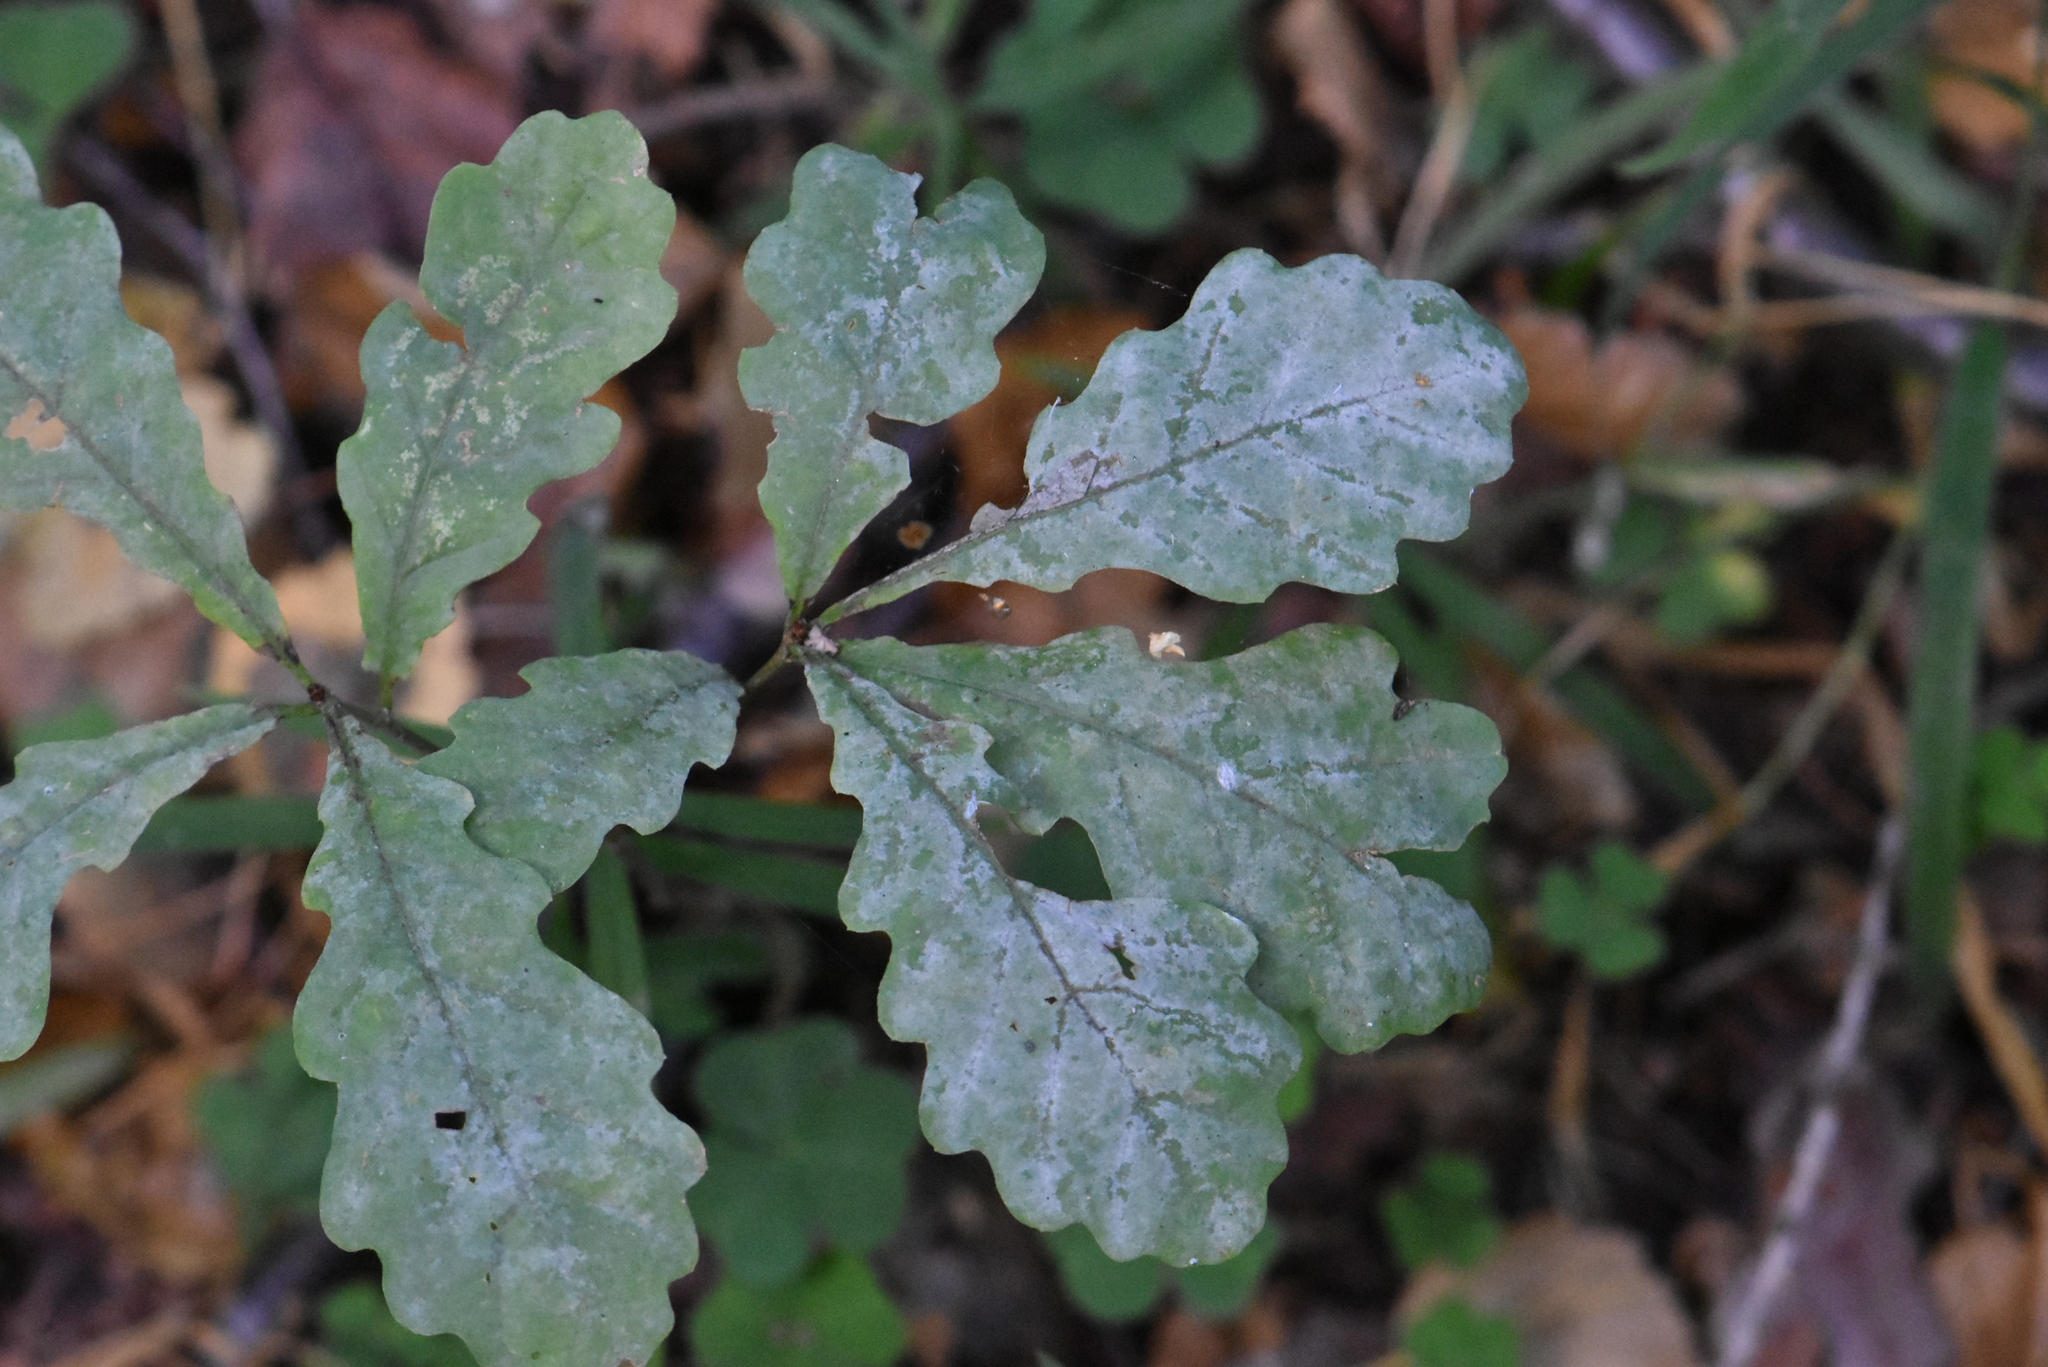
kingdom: Plantae
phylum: Tracheophyta
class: Magnoliopsida
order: Fagales
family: Fagaceae
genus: Quercus
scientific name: Quercus robur
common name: Pedunculate oak
